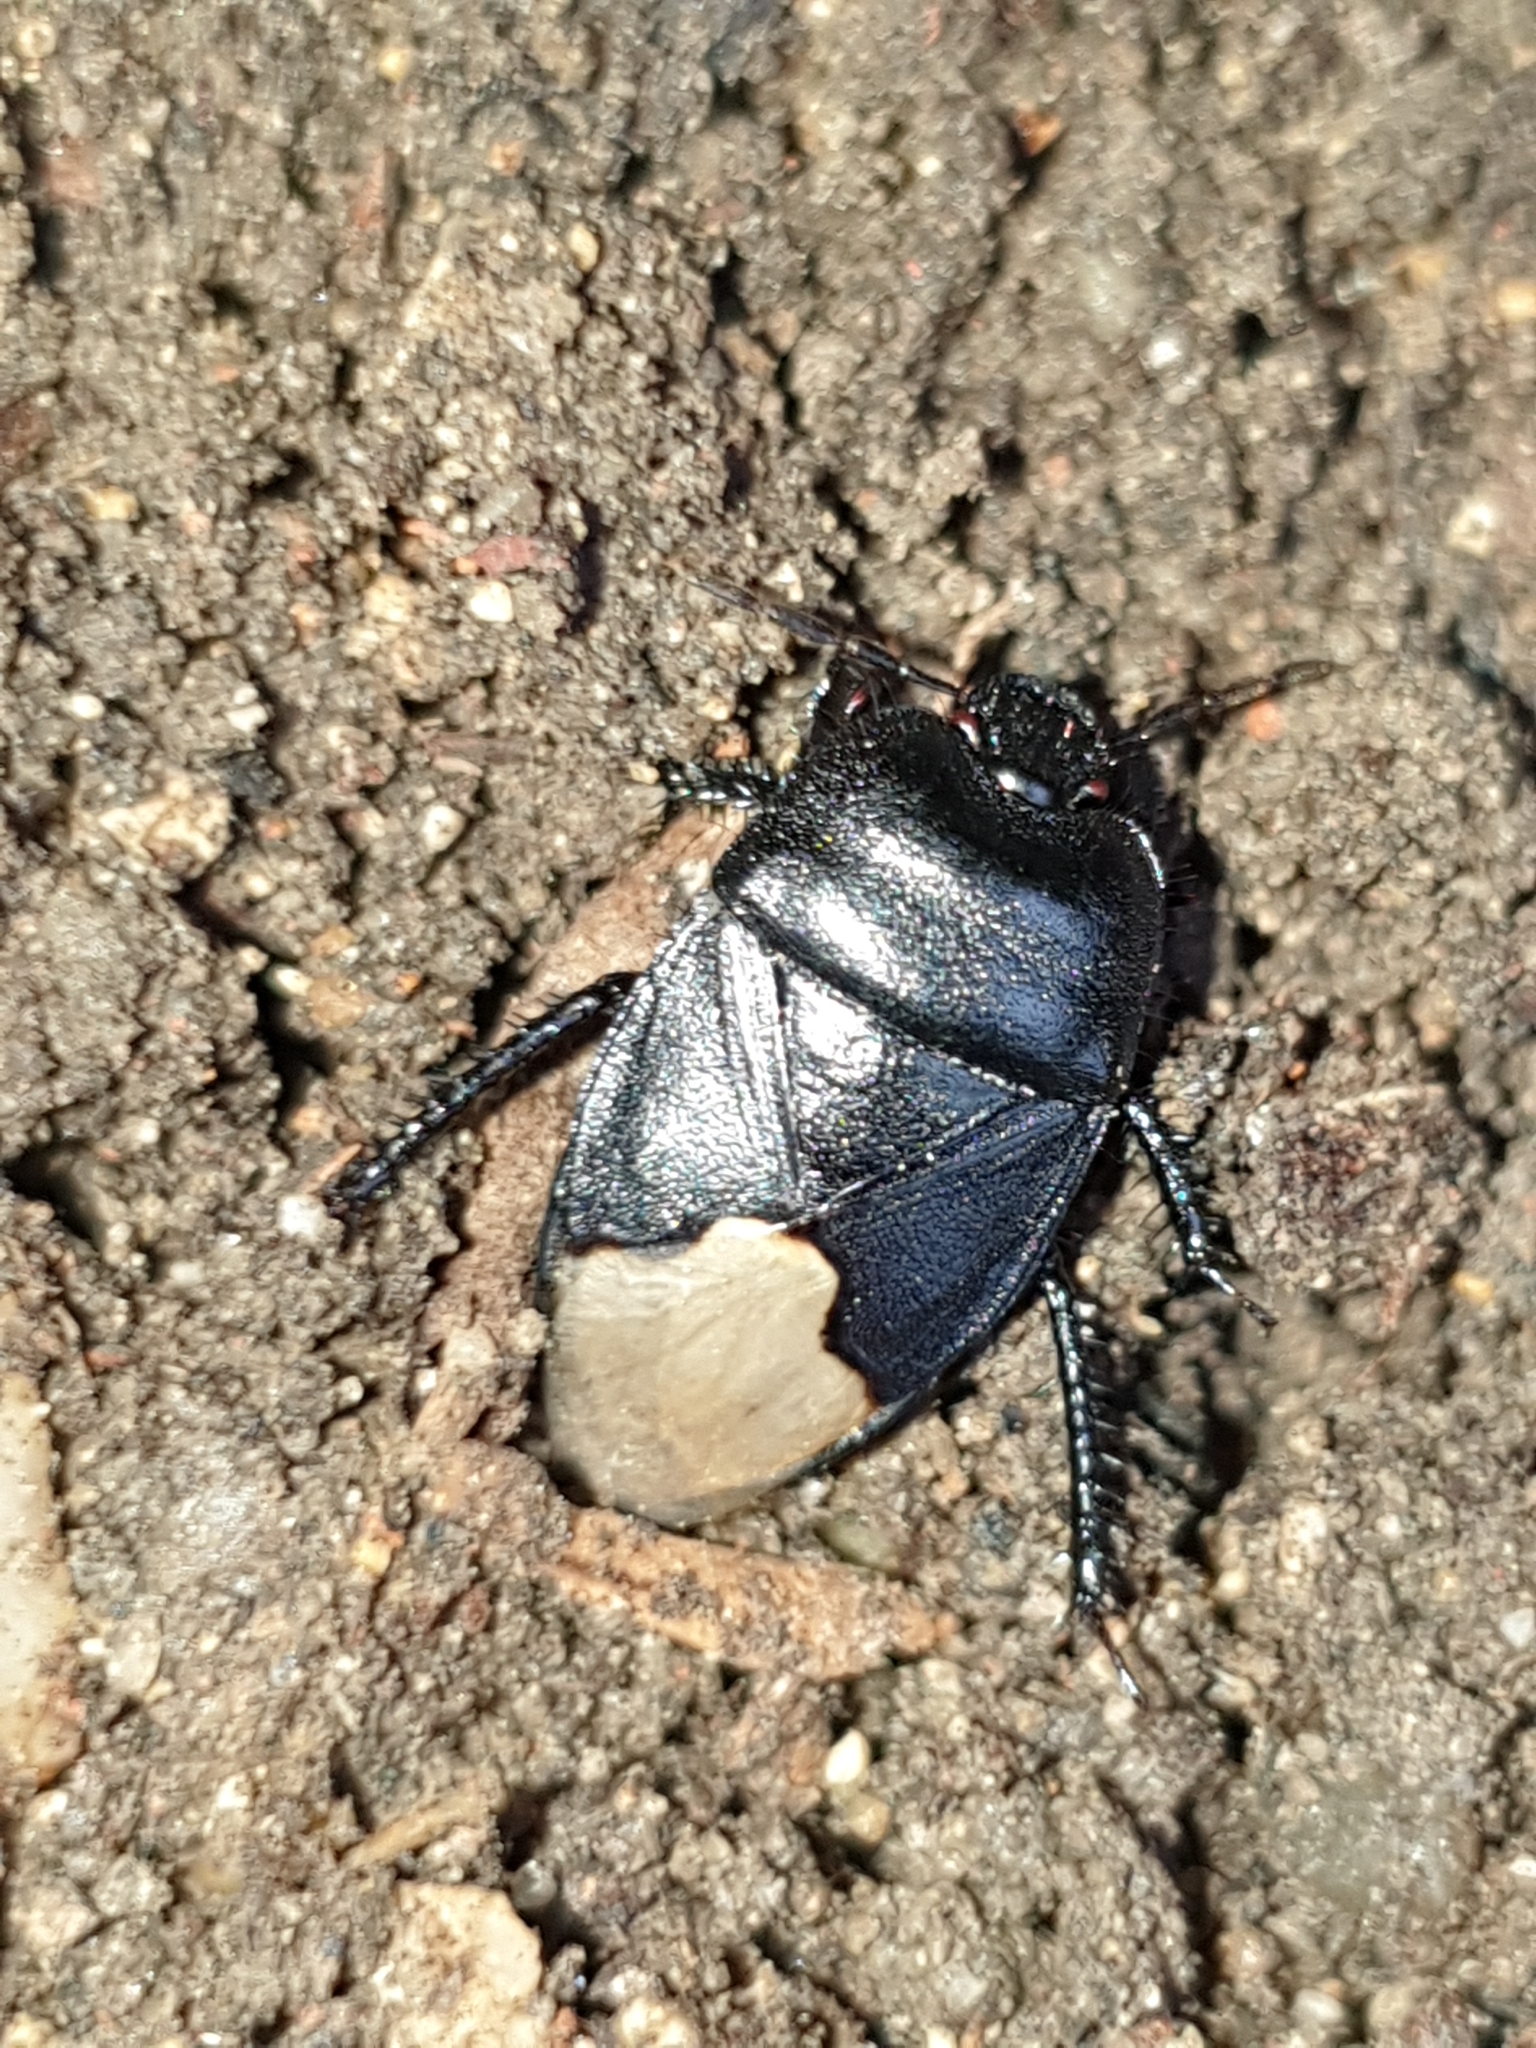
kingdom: Animalia
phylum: Arthropoda
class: Insecta
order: Hemiptera
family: Cydnidae
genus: Cydnus
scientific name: Cydnus aterrimus
